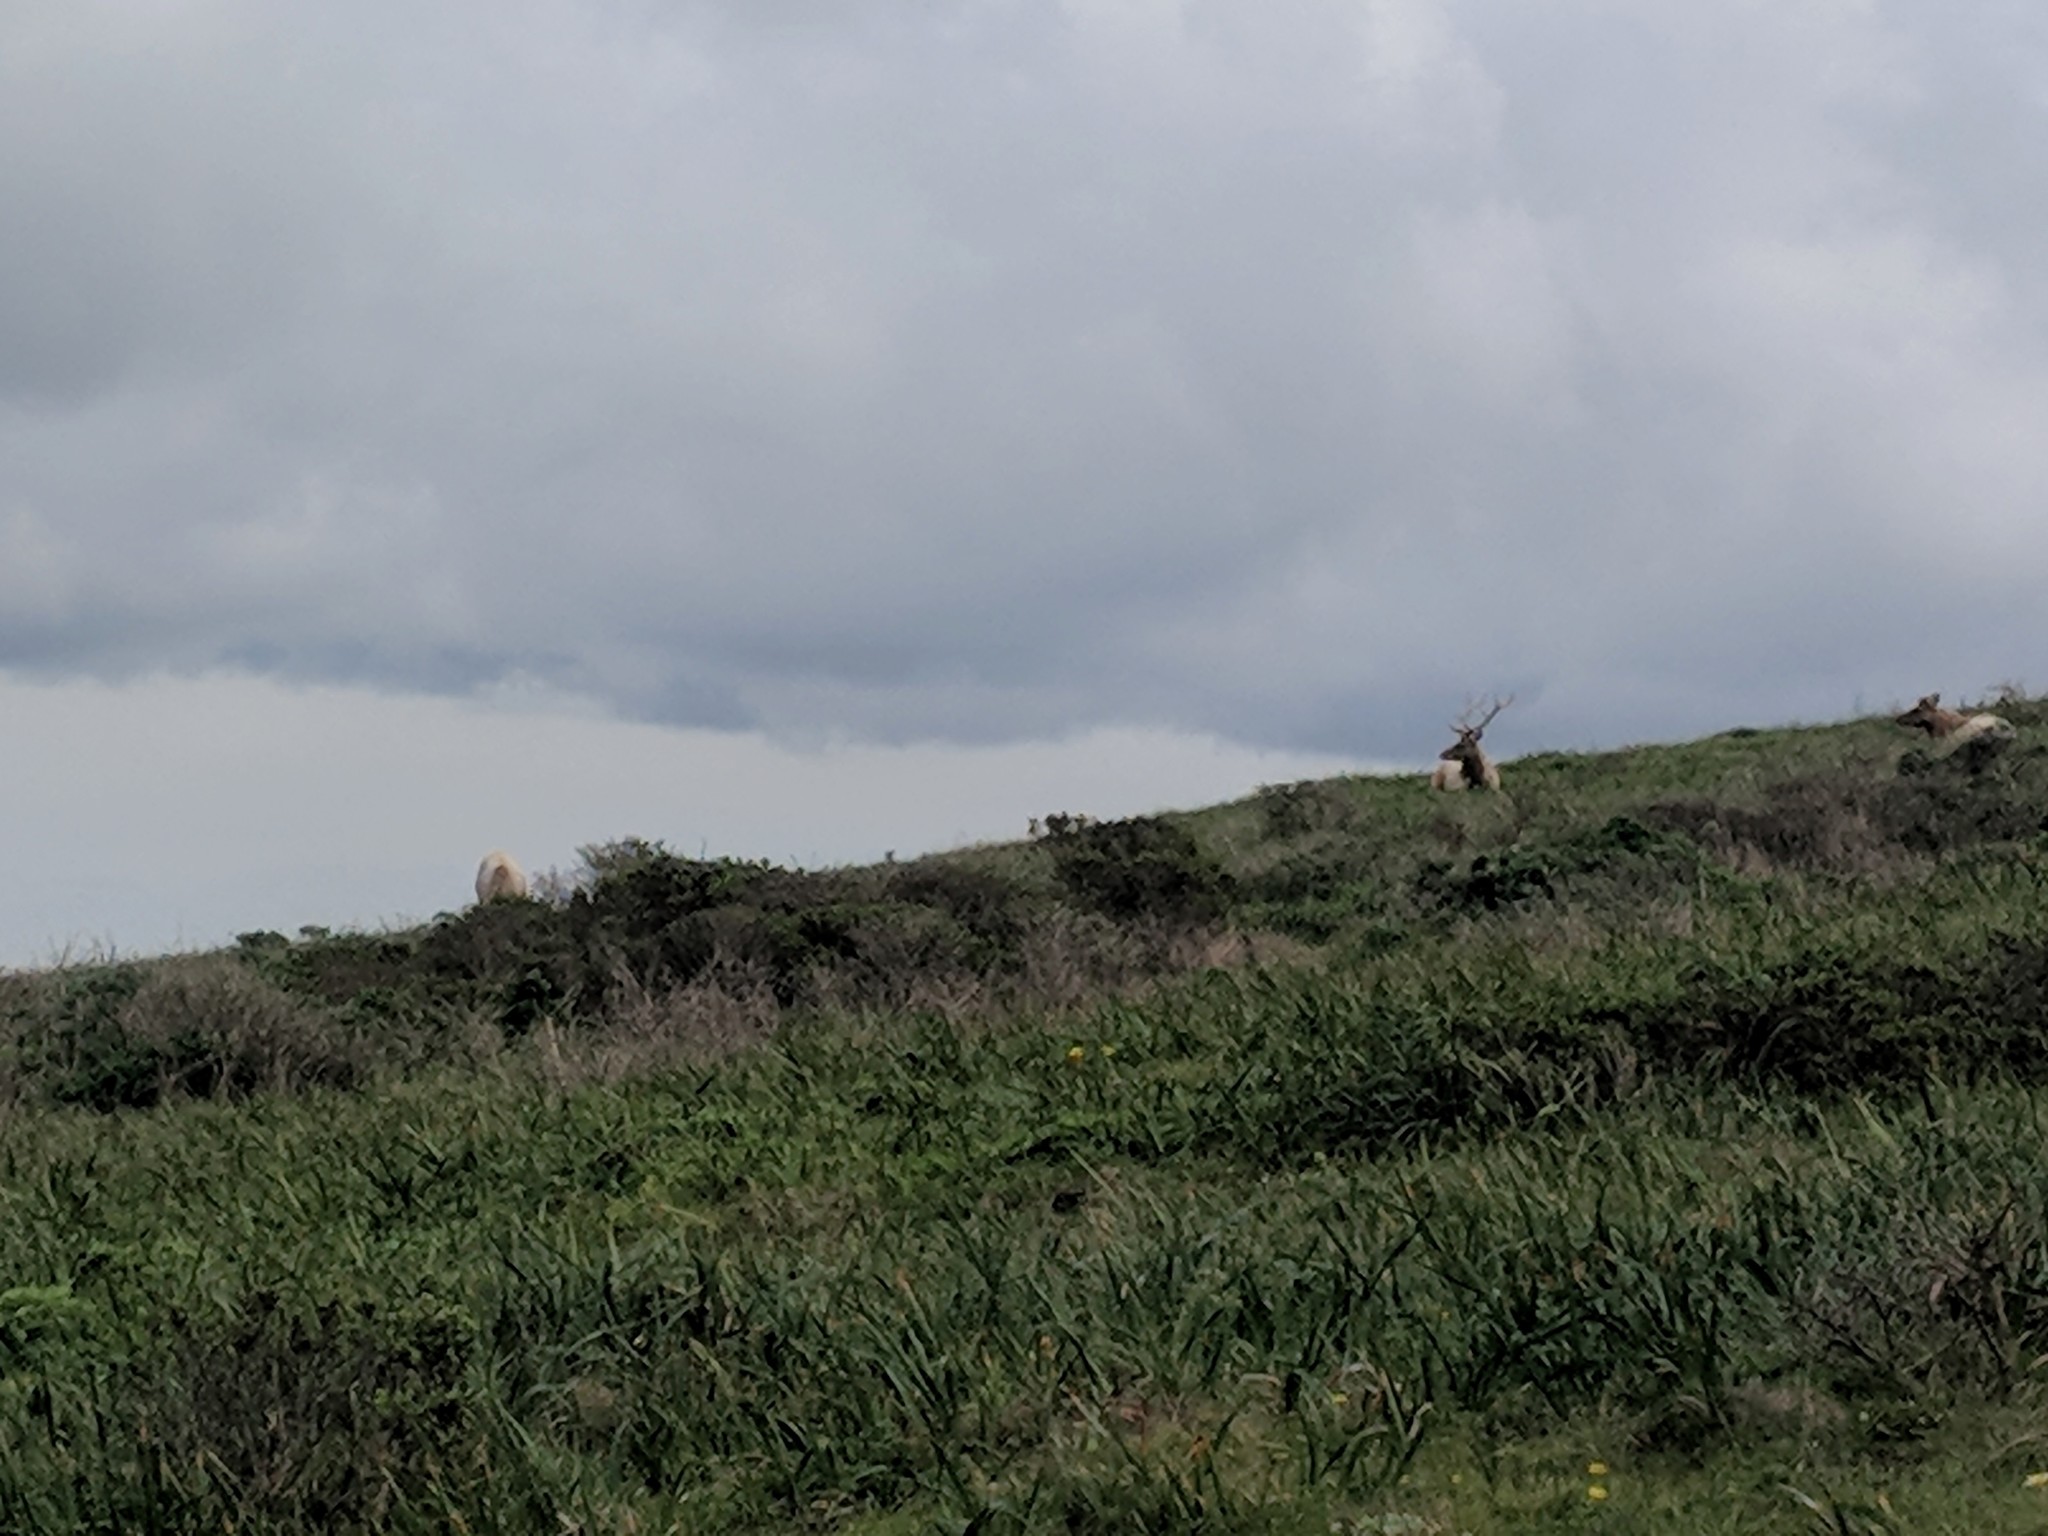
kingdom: Animalia
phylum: Chordata
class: Mammalia
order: Artiodactyla
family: Cervidae
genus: Cervus
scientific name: Cervus elaphus
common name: Red deer
